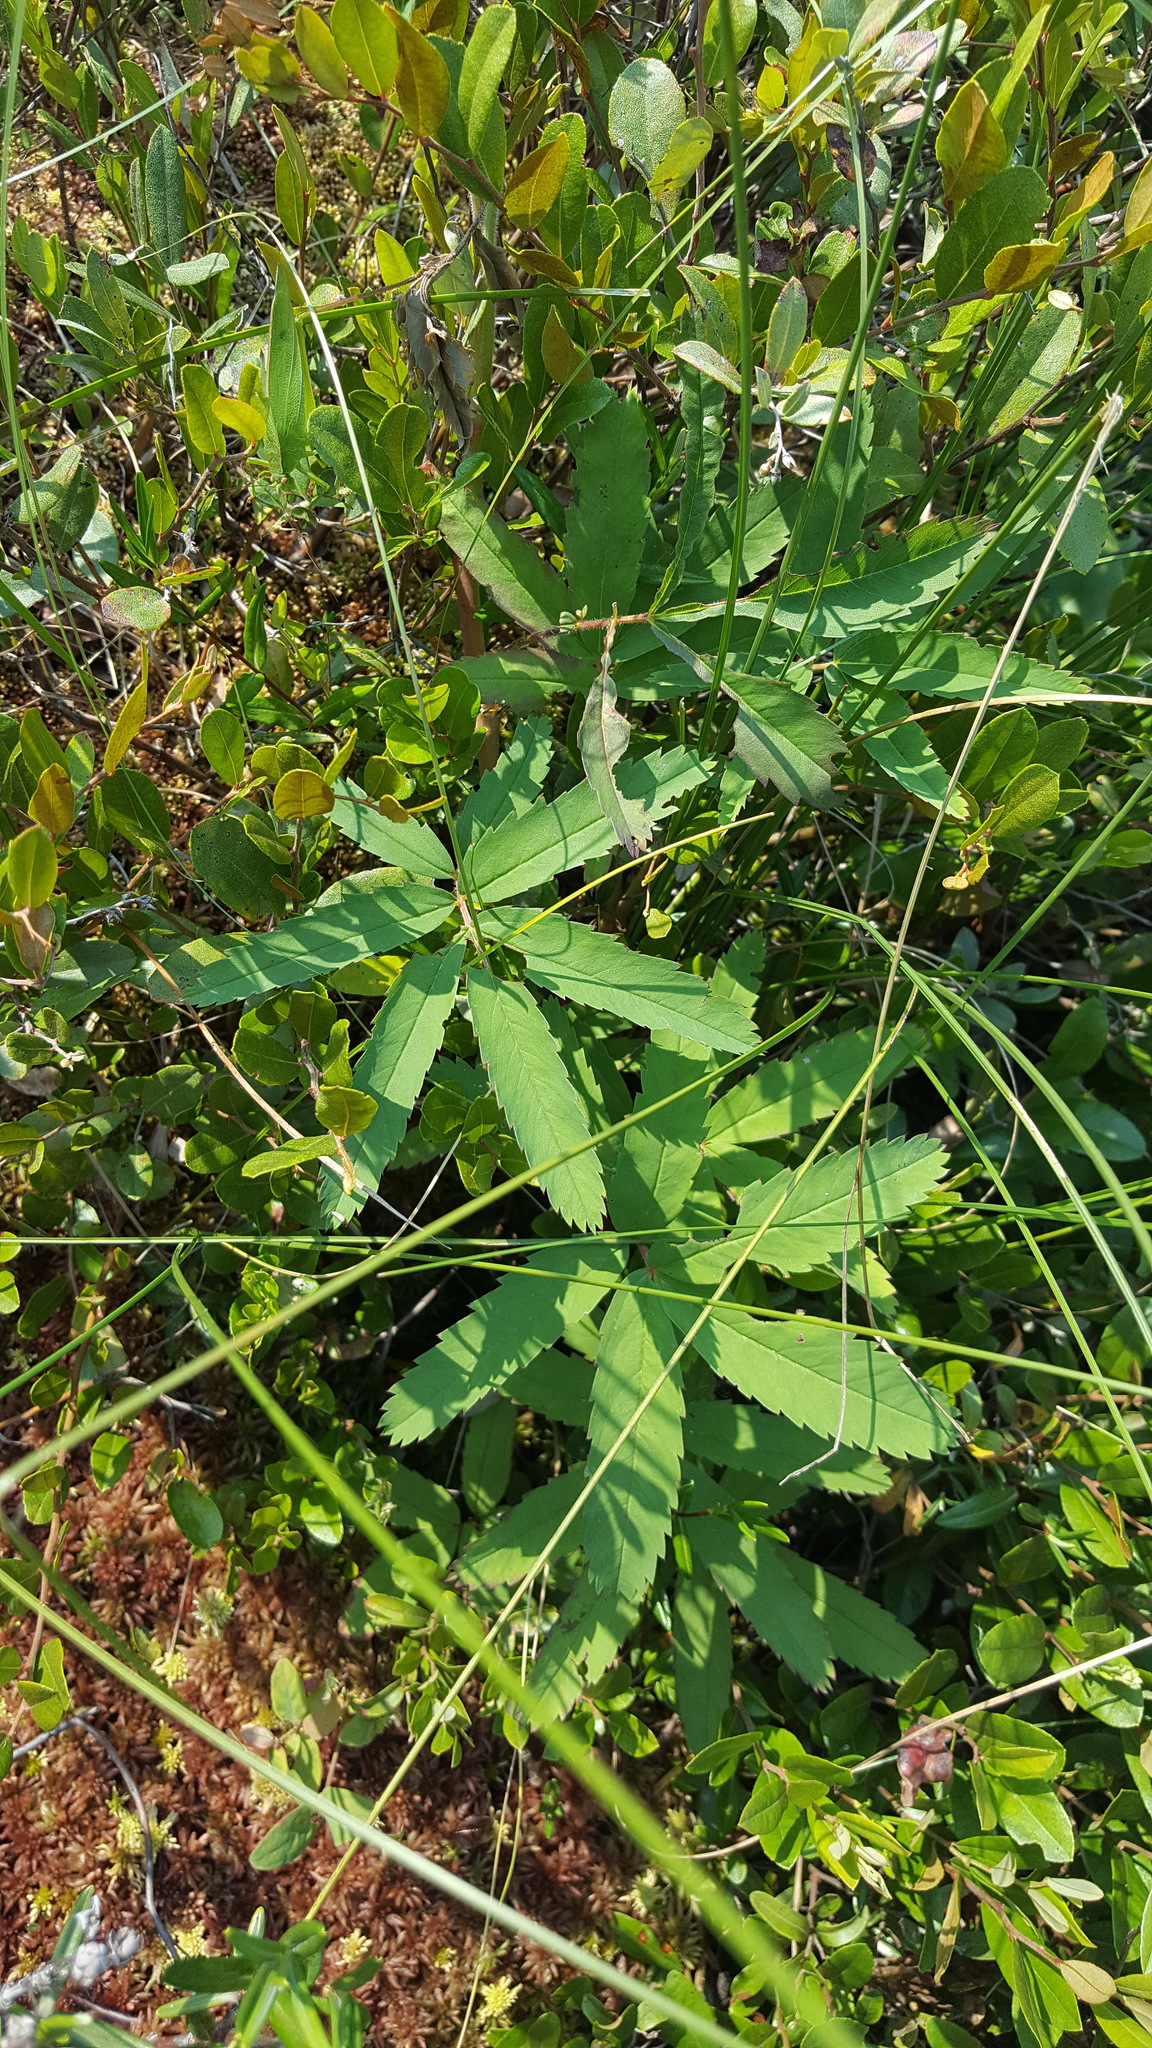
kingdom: Plantae
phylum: Tracheophyta
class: Magnoliopsida
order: Rosales
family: Rosaceae
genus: Comarum
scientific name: Comarum palustre
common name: Marsh cinquefoil
